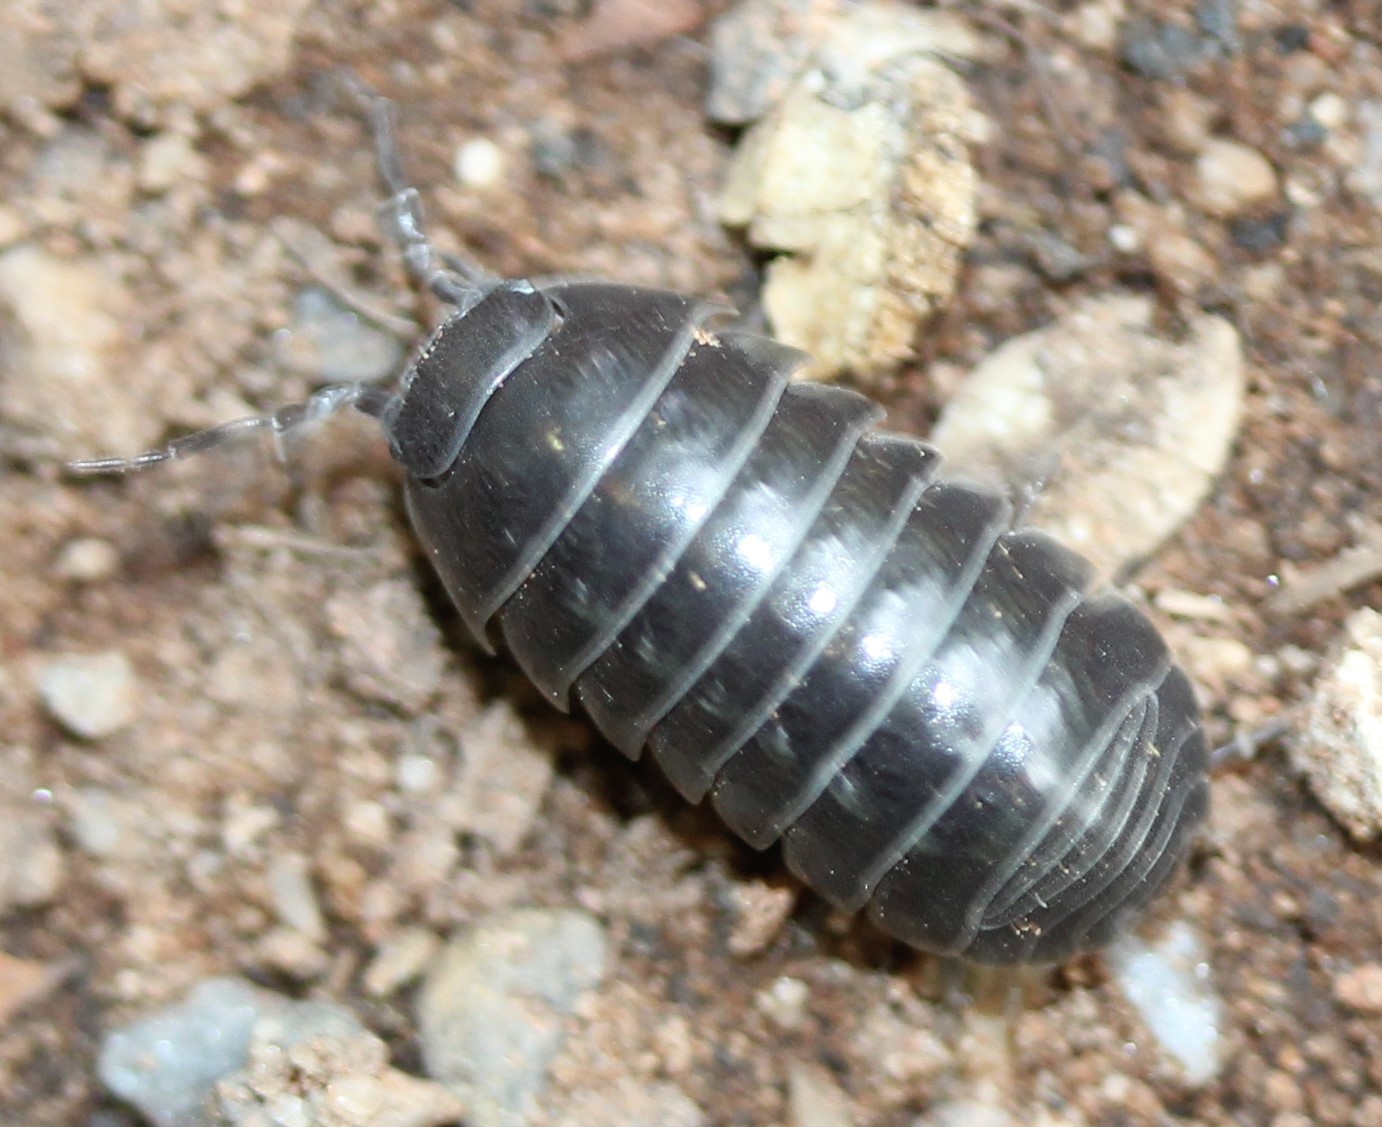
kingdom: Animalia
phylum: Arthropoda
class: Malacostraca
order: Isopoda
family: Armadillidiidae
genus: Armadillidium
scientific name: Armadillidium vulgare
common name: Common pill woodlouse
